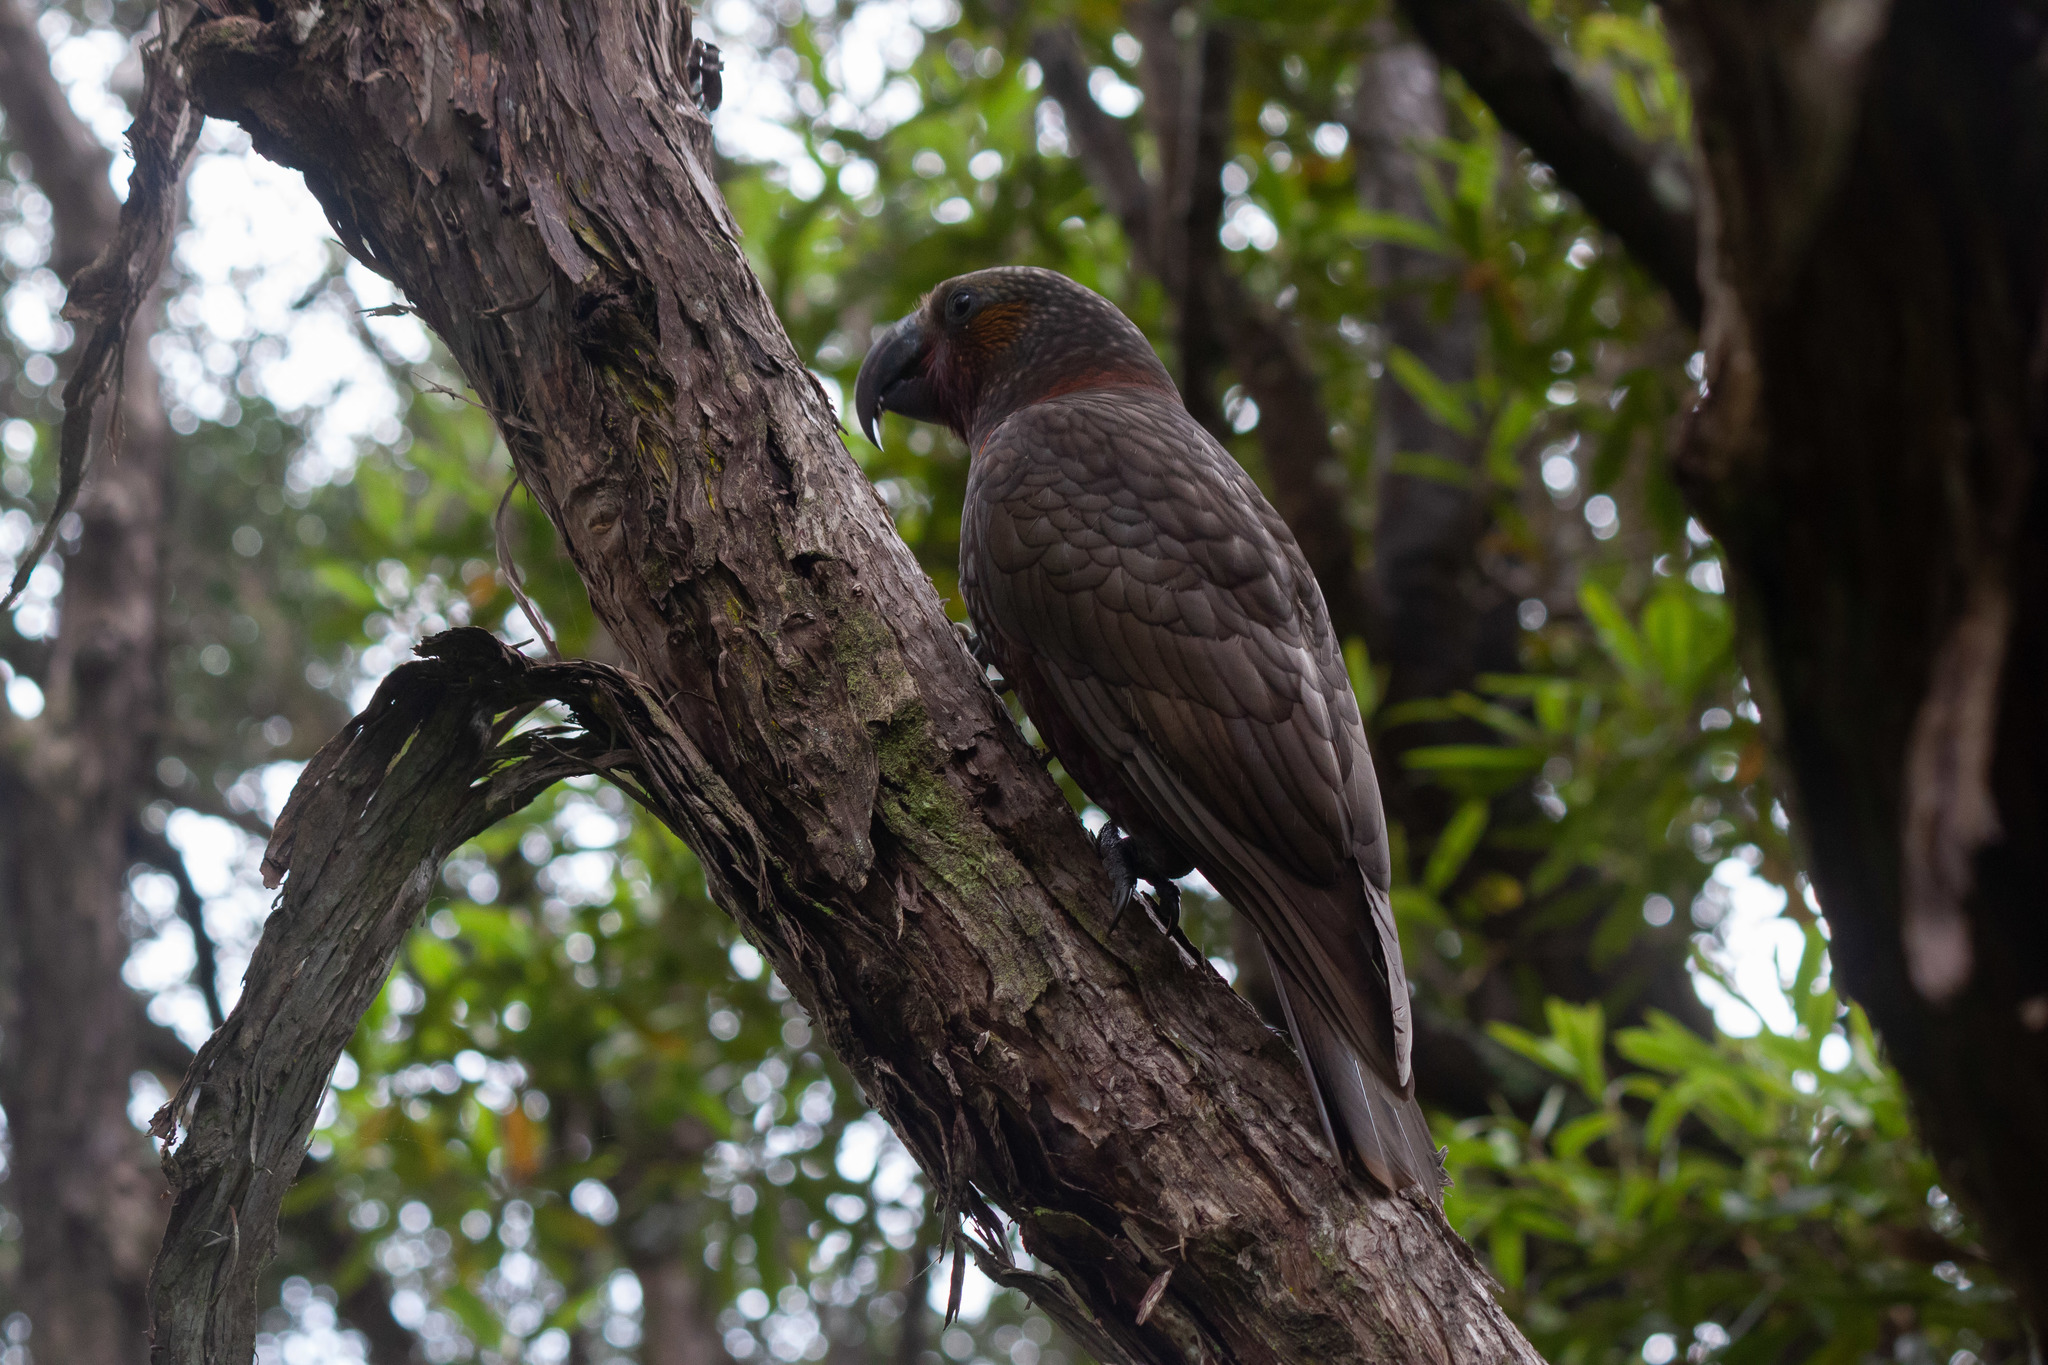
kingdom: Animalia
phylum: Chordata
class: Aves
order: Psittaciformes
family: Psittacidae
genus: Nestor
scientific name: Nestor meridionalis
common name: New zealand kaka
